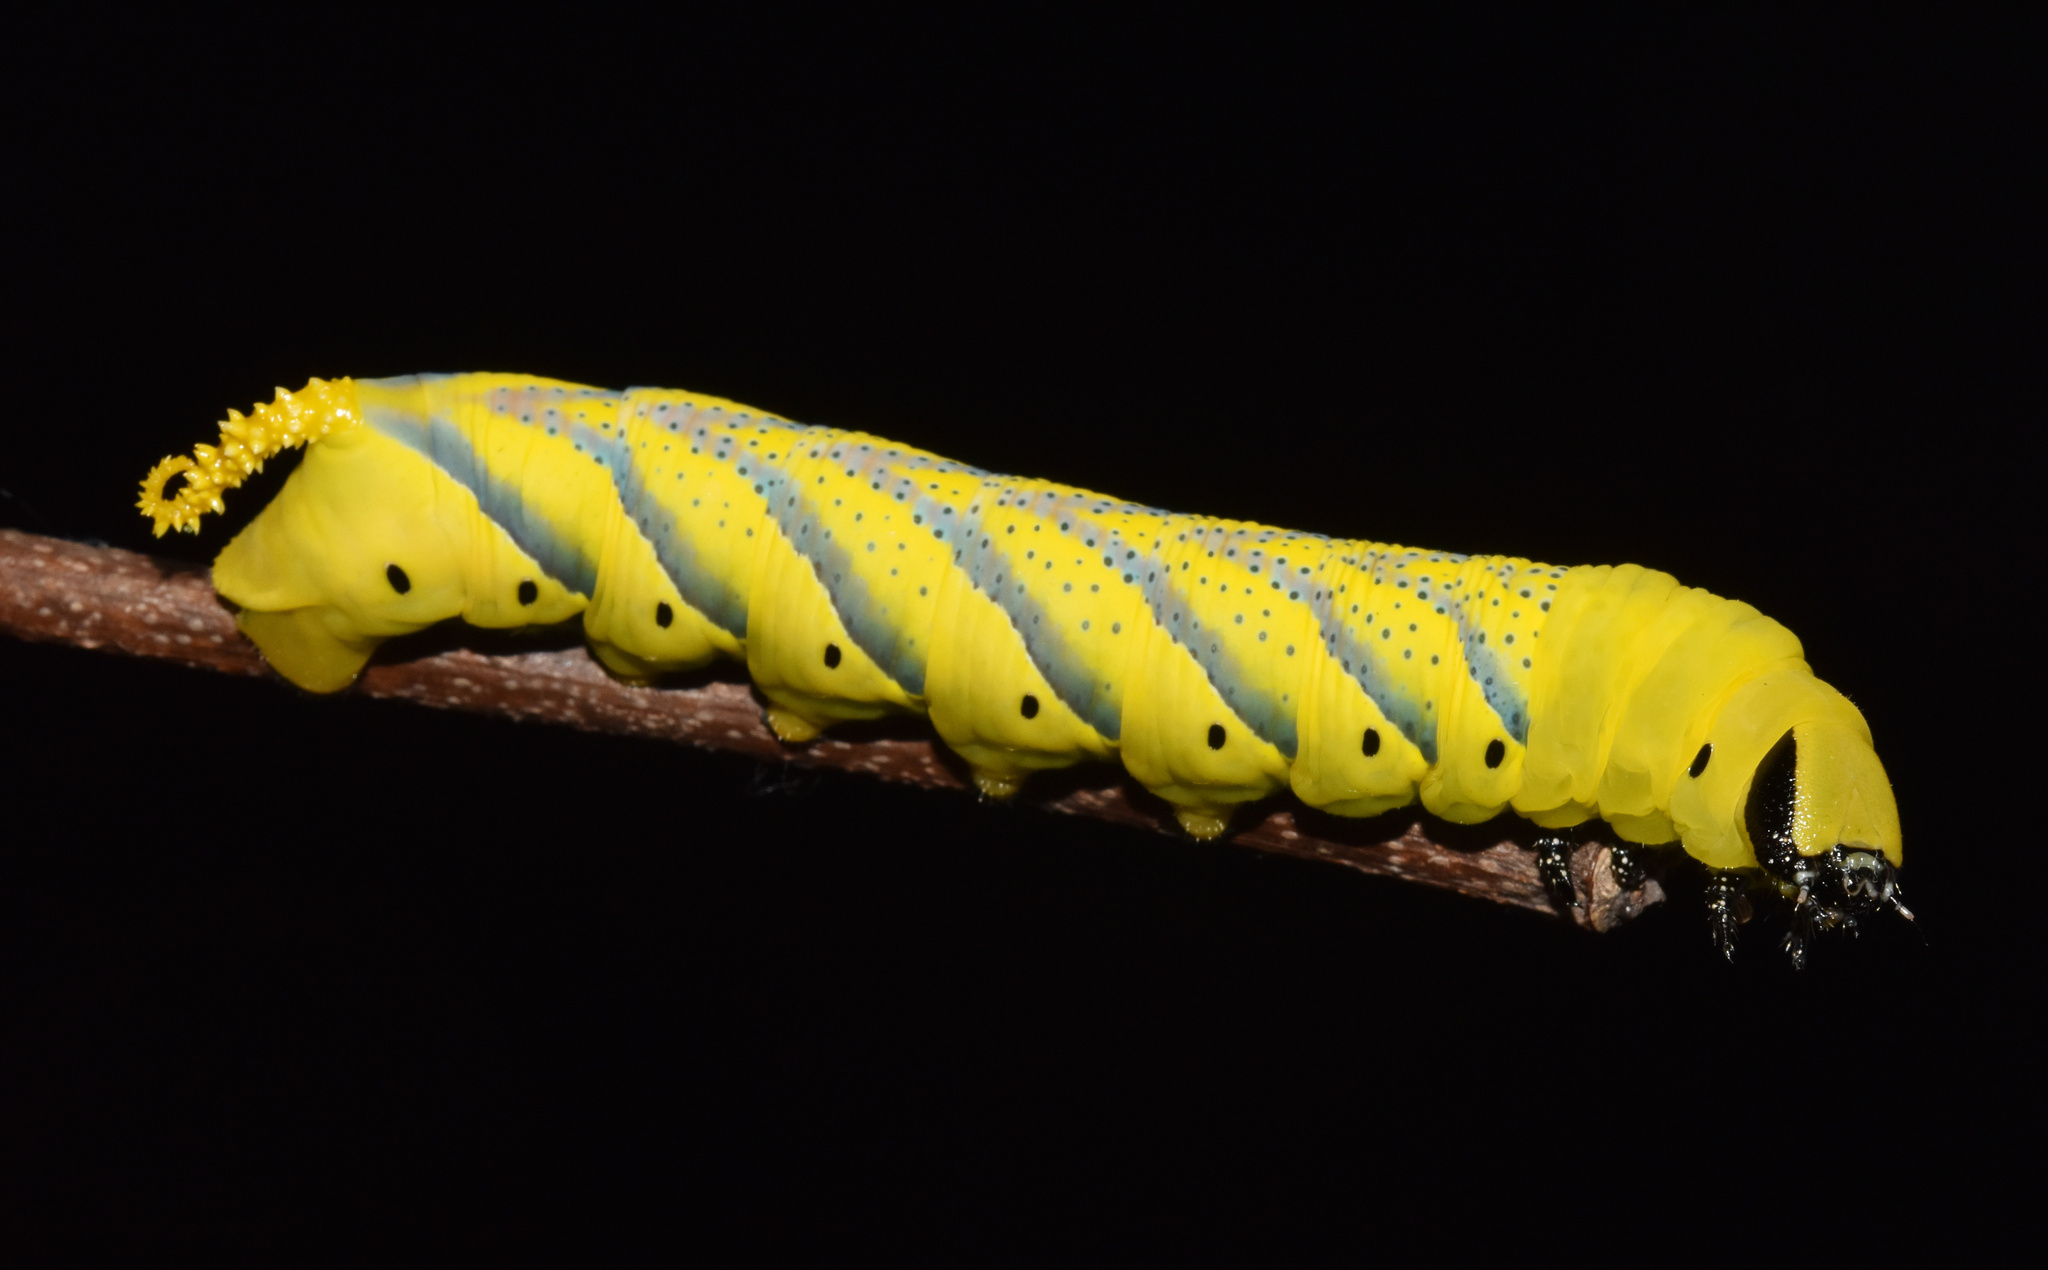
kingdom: Animalia
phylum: Arthropoda
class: Insecta
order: Lepidoptera
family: Sphingidae
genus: Acherontia
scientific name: Acherontia atropos
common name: Death's-head hawk moth
